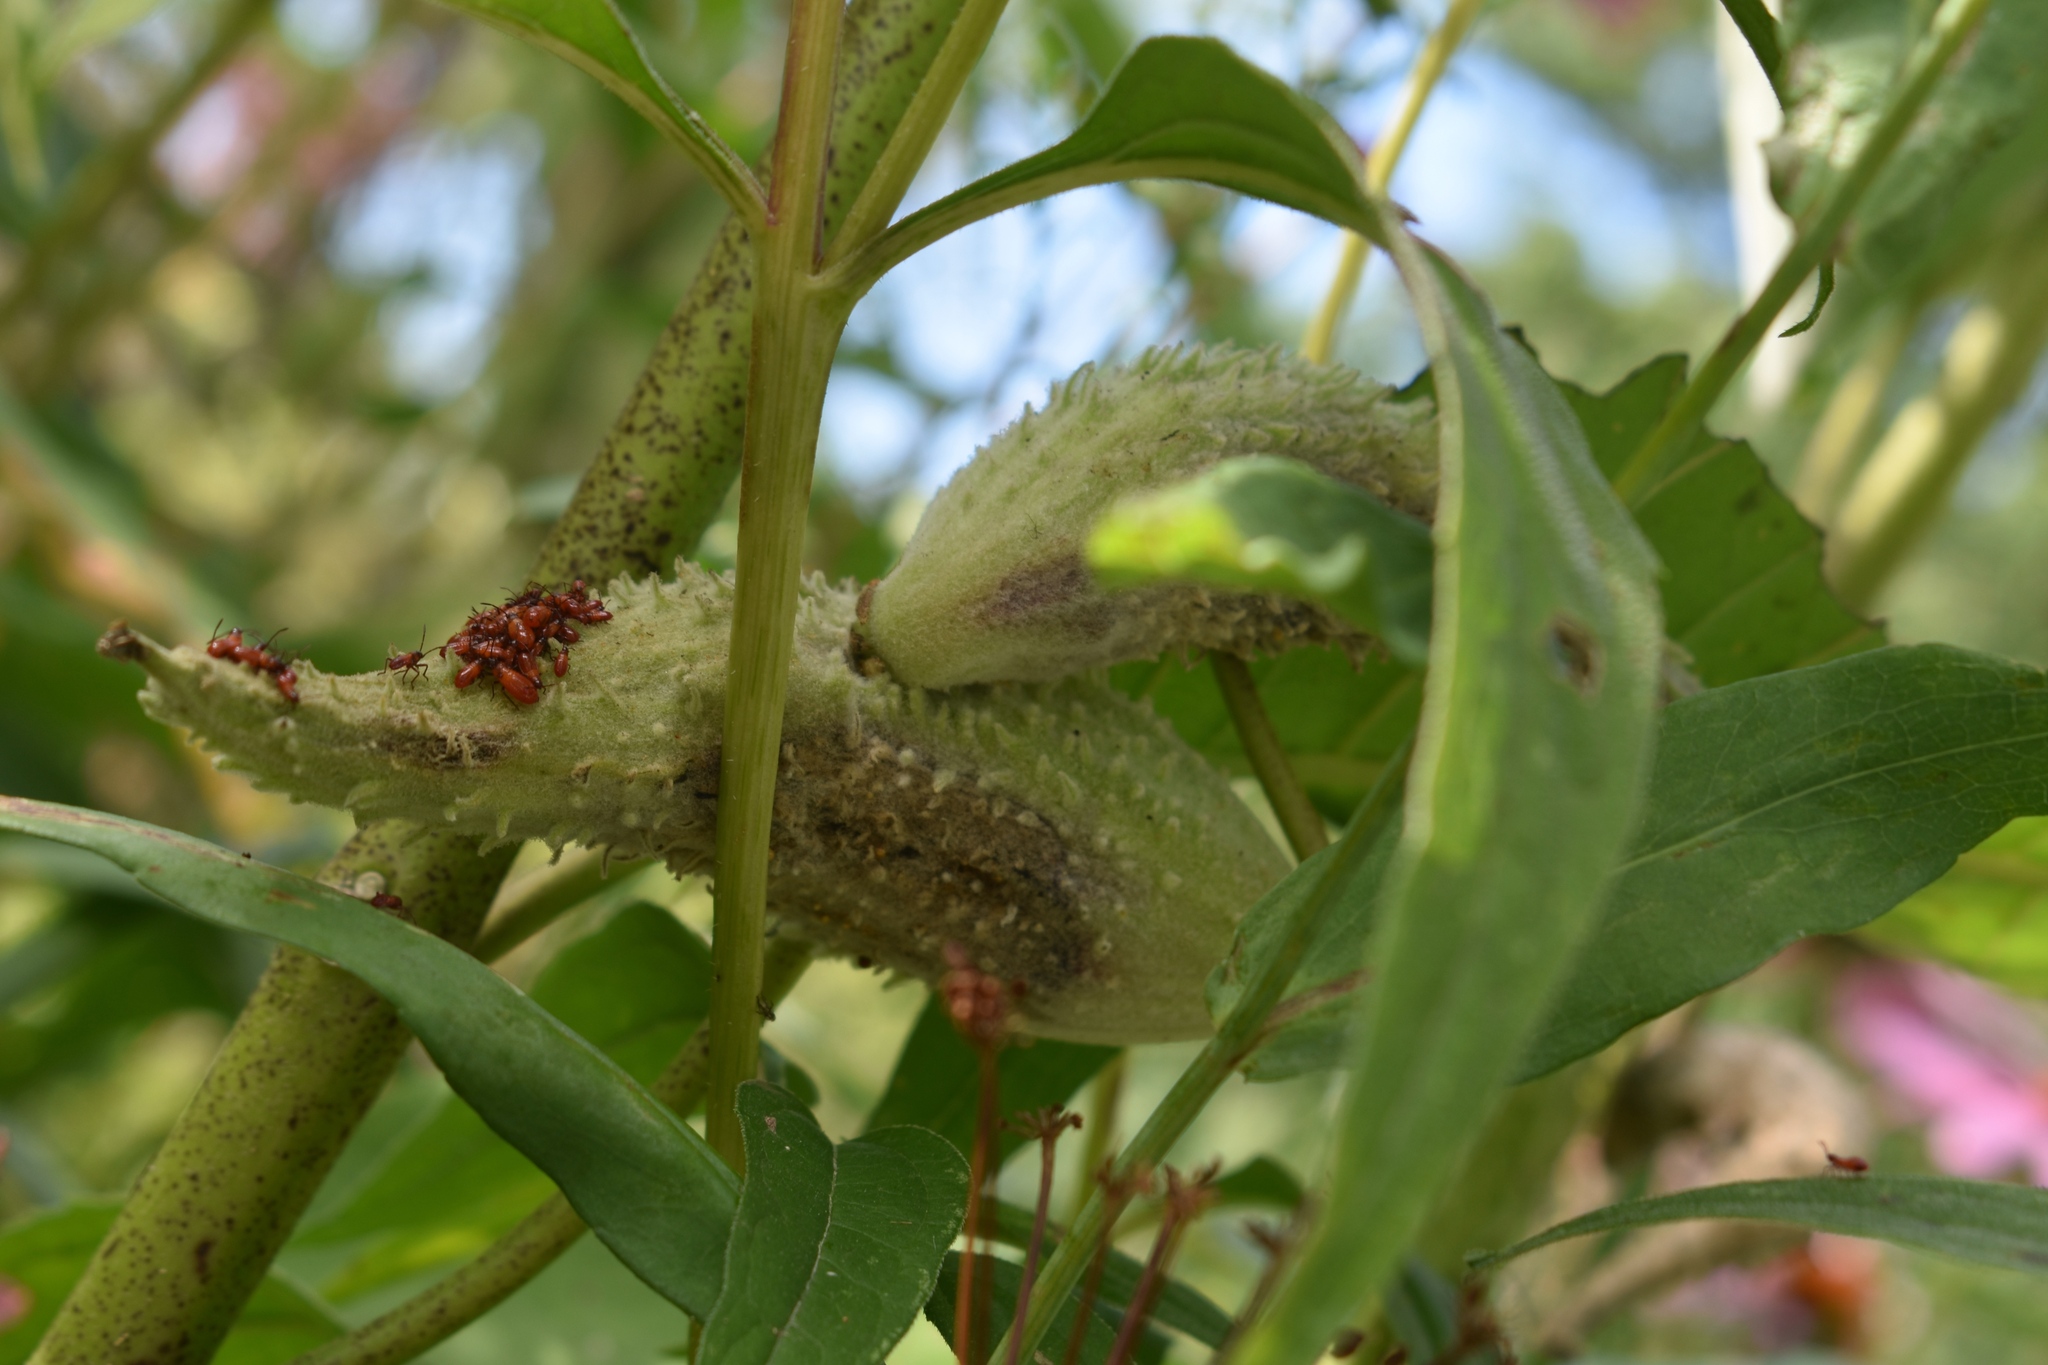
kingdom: Animalia
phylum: Arthropoda
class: Insecta
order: Hemiptera
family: Lygaeidae
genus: Oncopeltus
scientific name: Oncopeltus fasciatus
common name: Large milkweed bug
